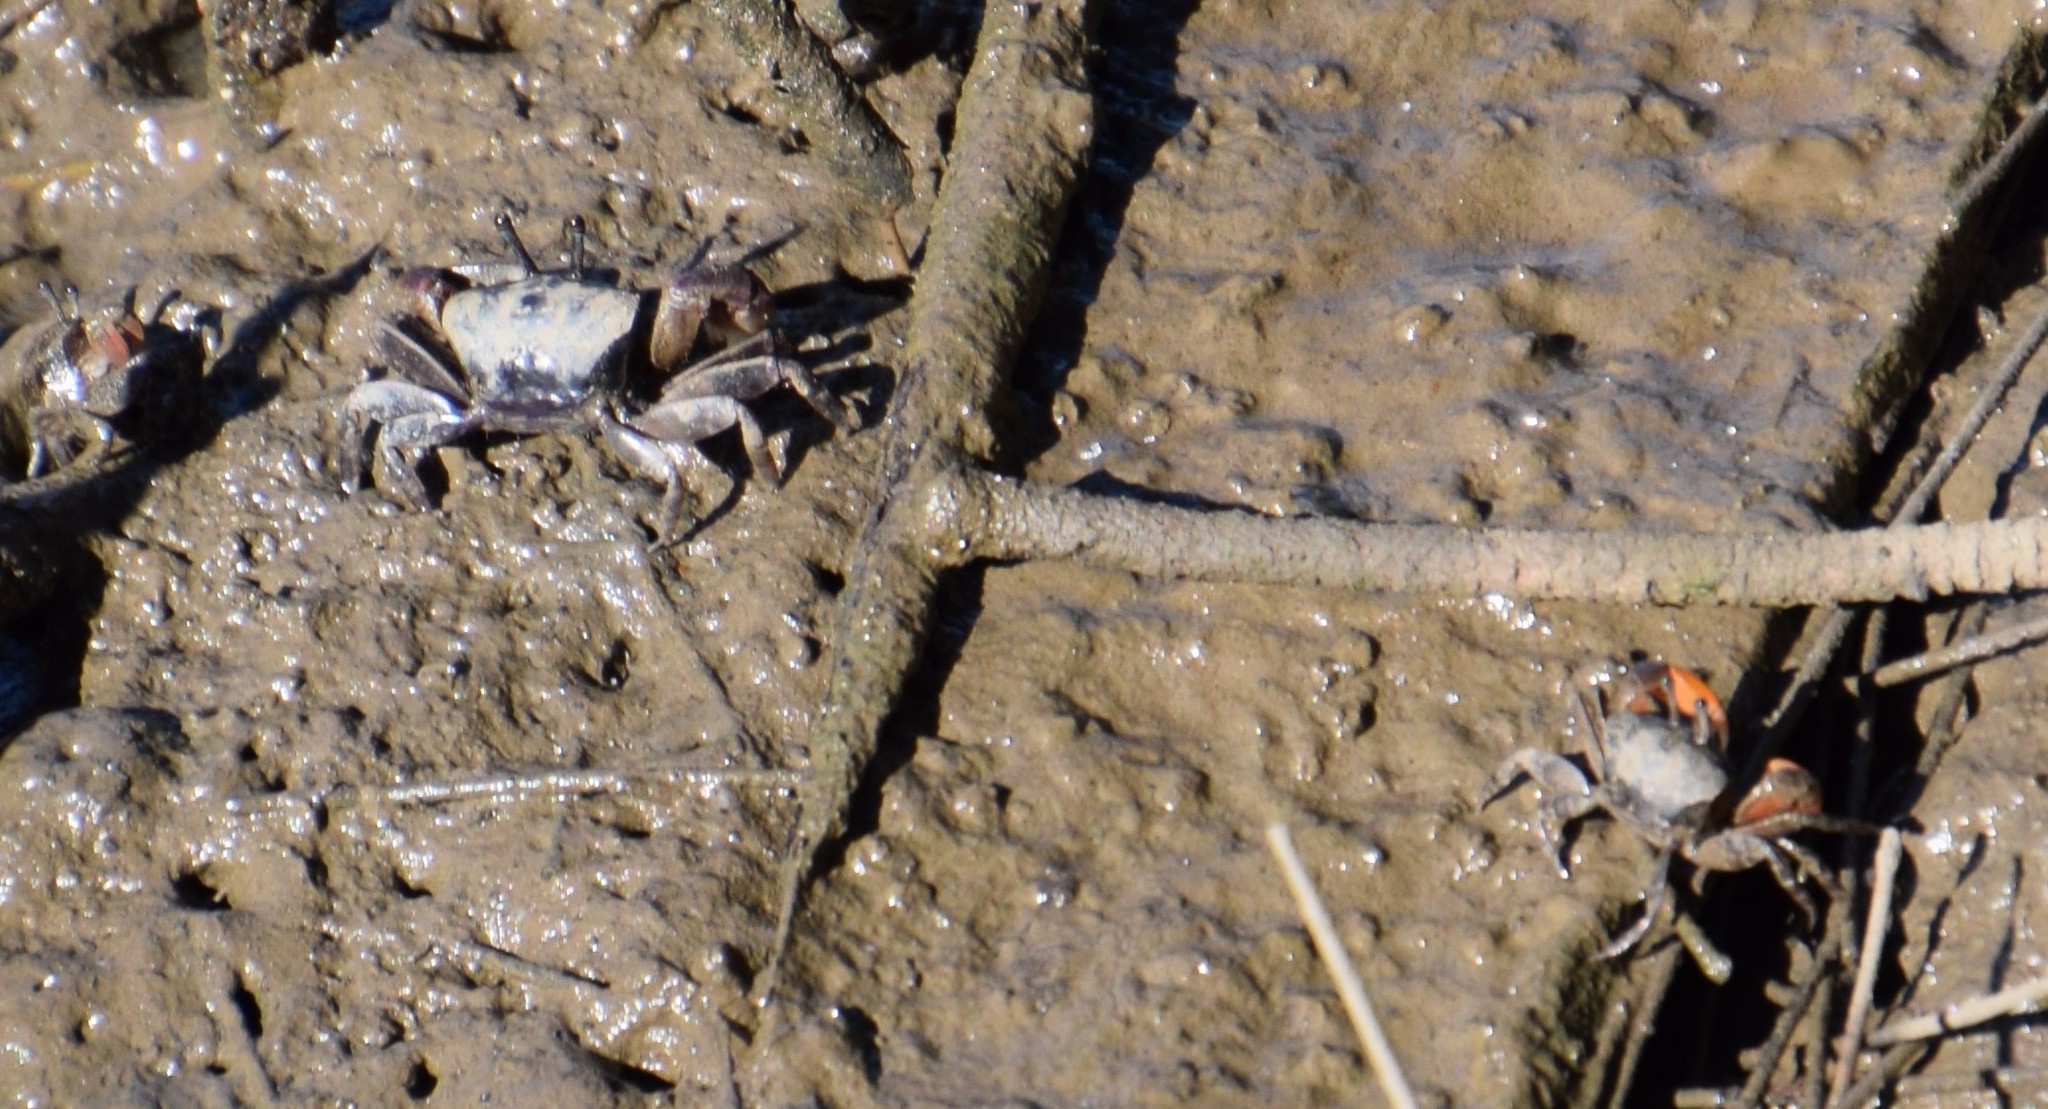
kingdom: Animalia
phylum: Arthropoda
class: Malacostraca
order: Decapoda
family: Heloeciidae
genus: Heloecius
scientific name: Heloecius cordiformis
